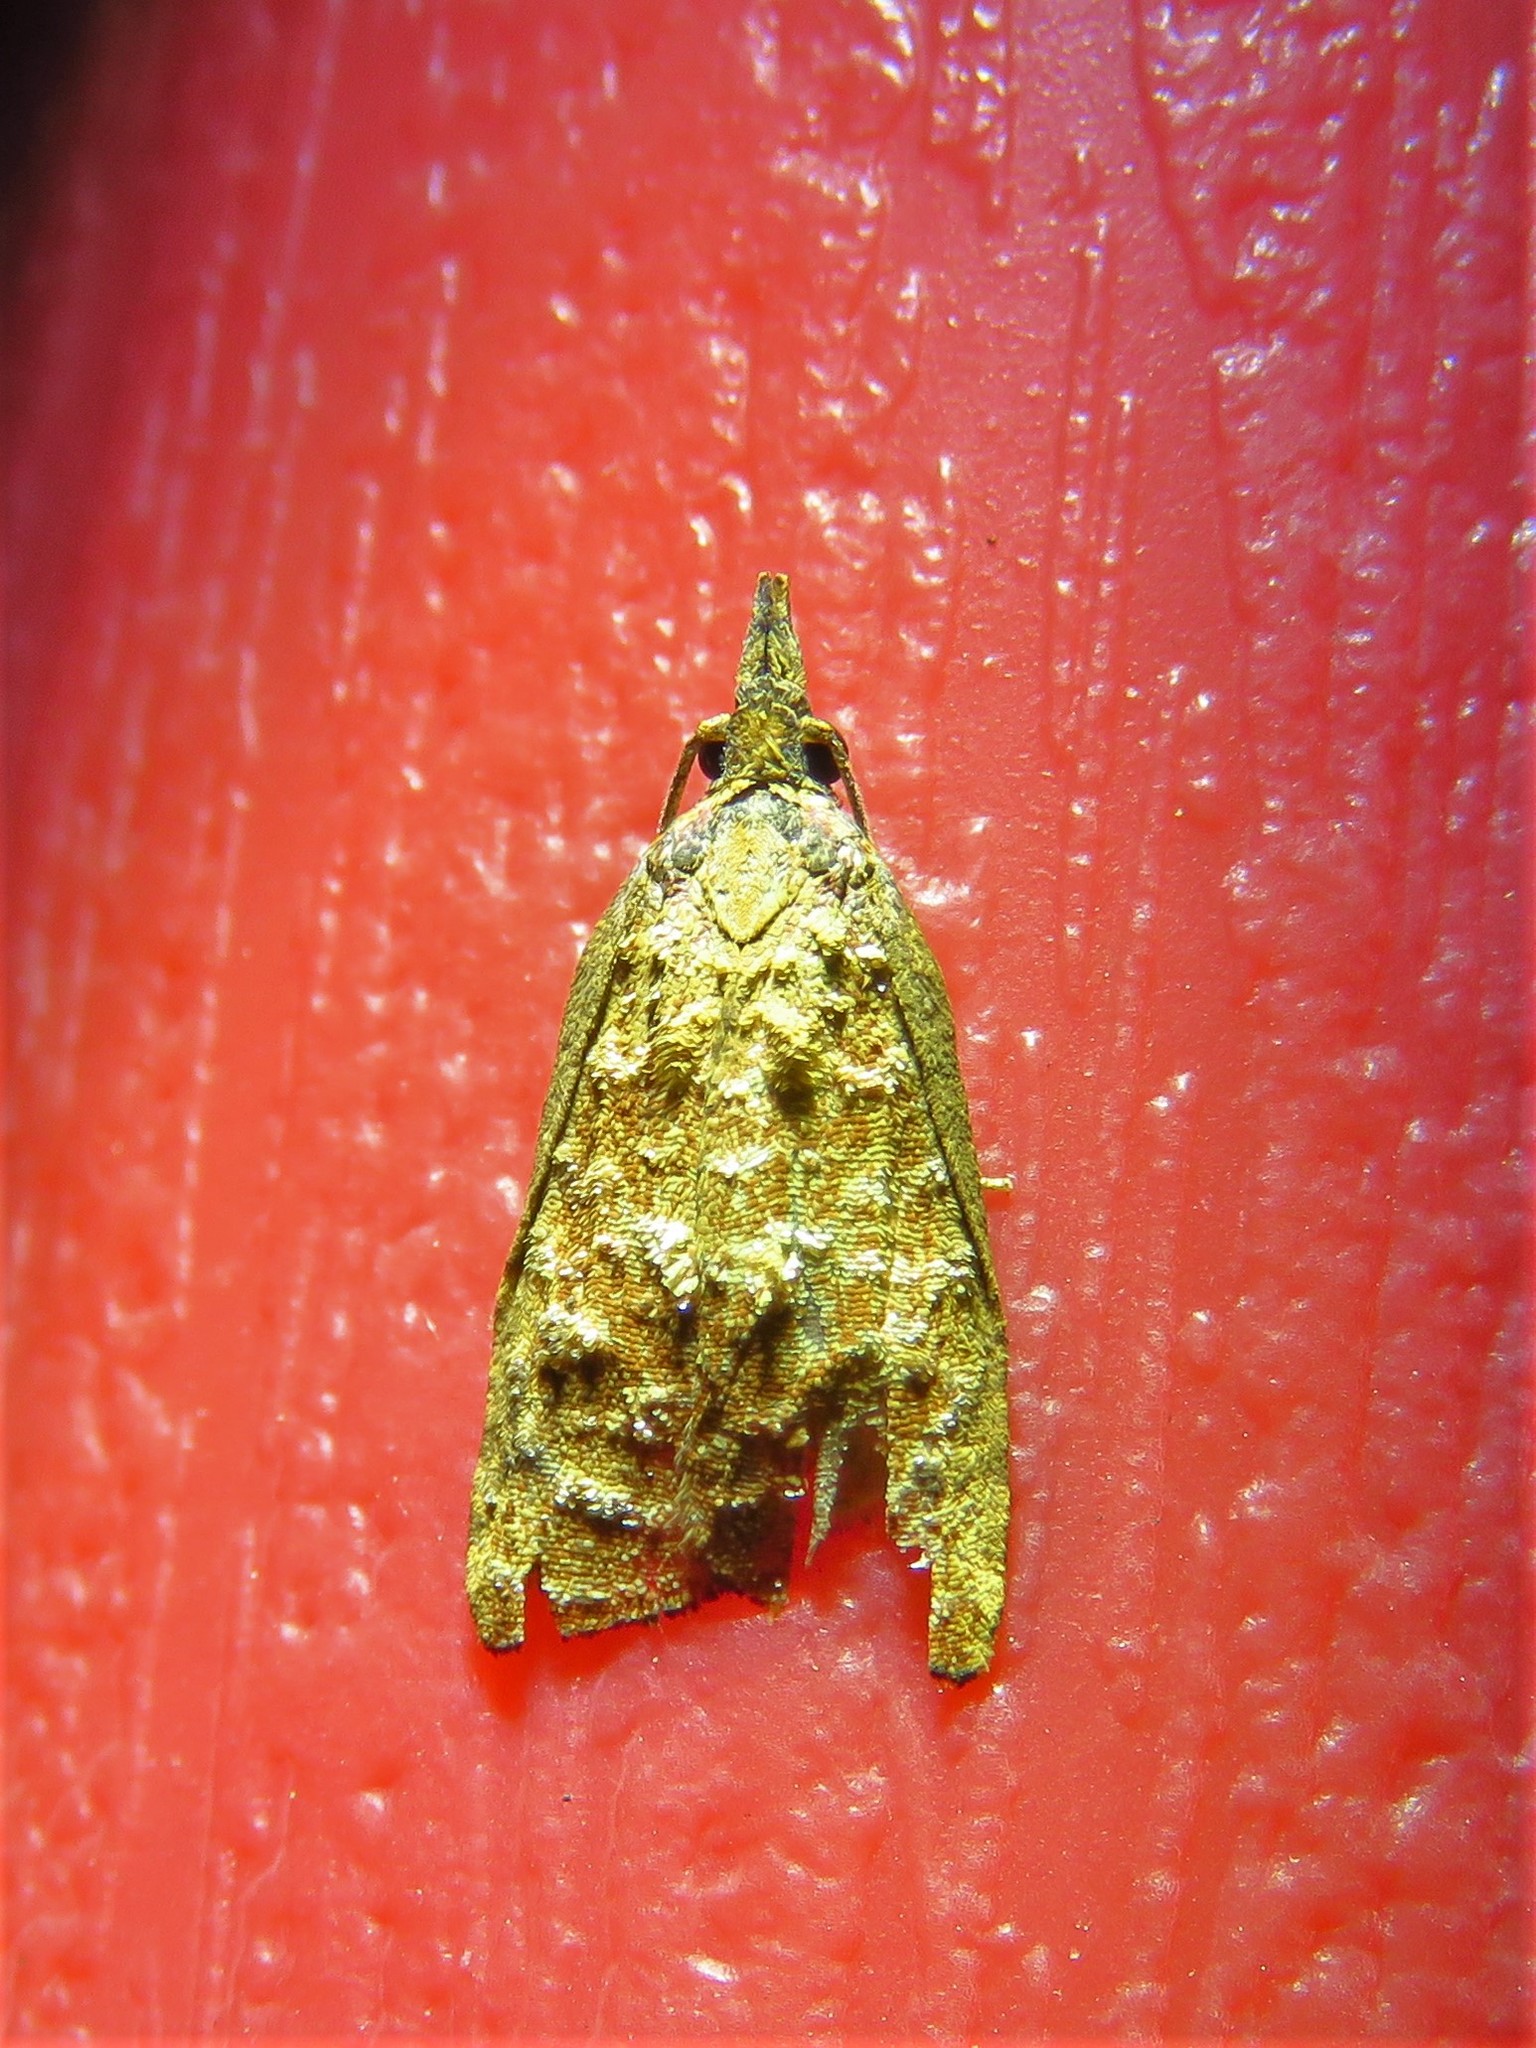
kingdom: Animalia
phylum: Arthropoda
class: Insecta
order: Lepidoptera
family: Tortricidae
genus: Platynota
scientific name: Platynota rostrana
